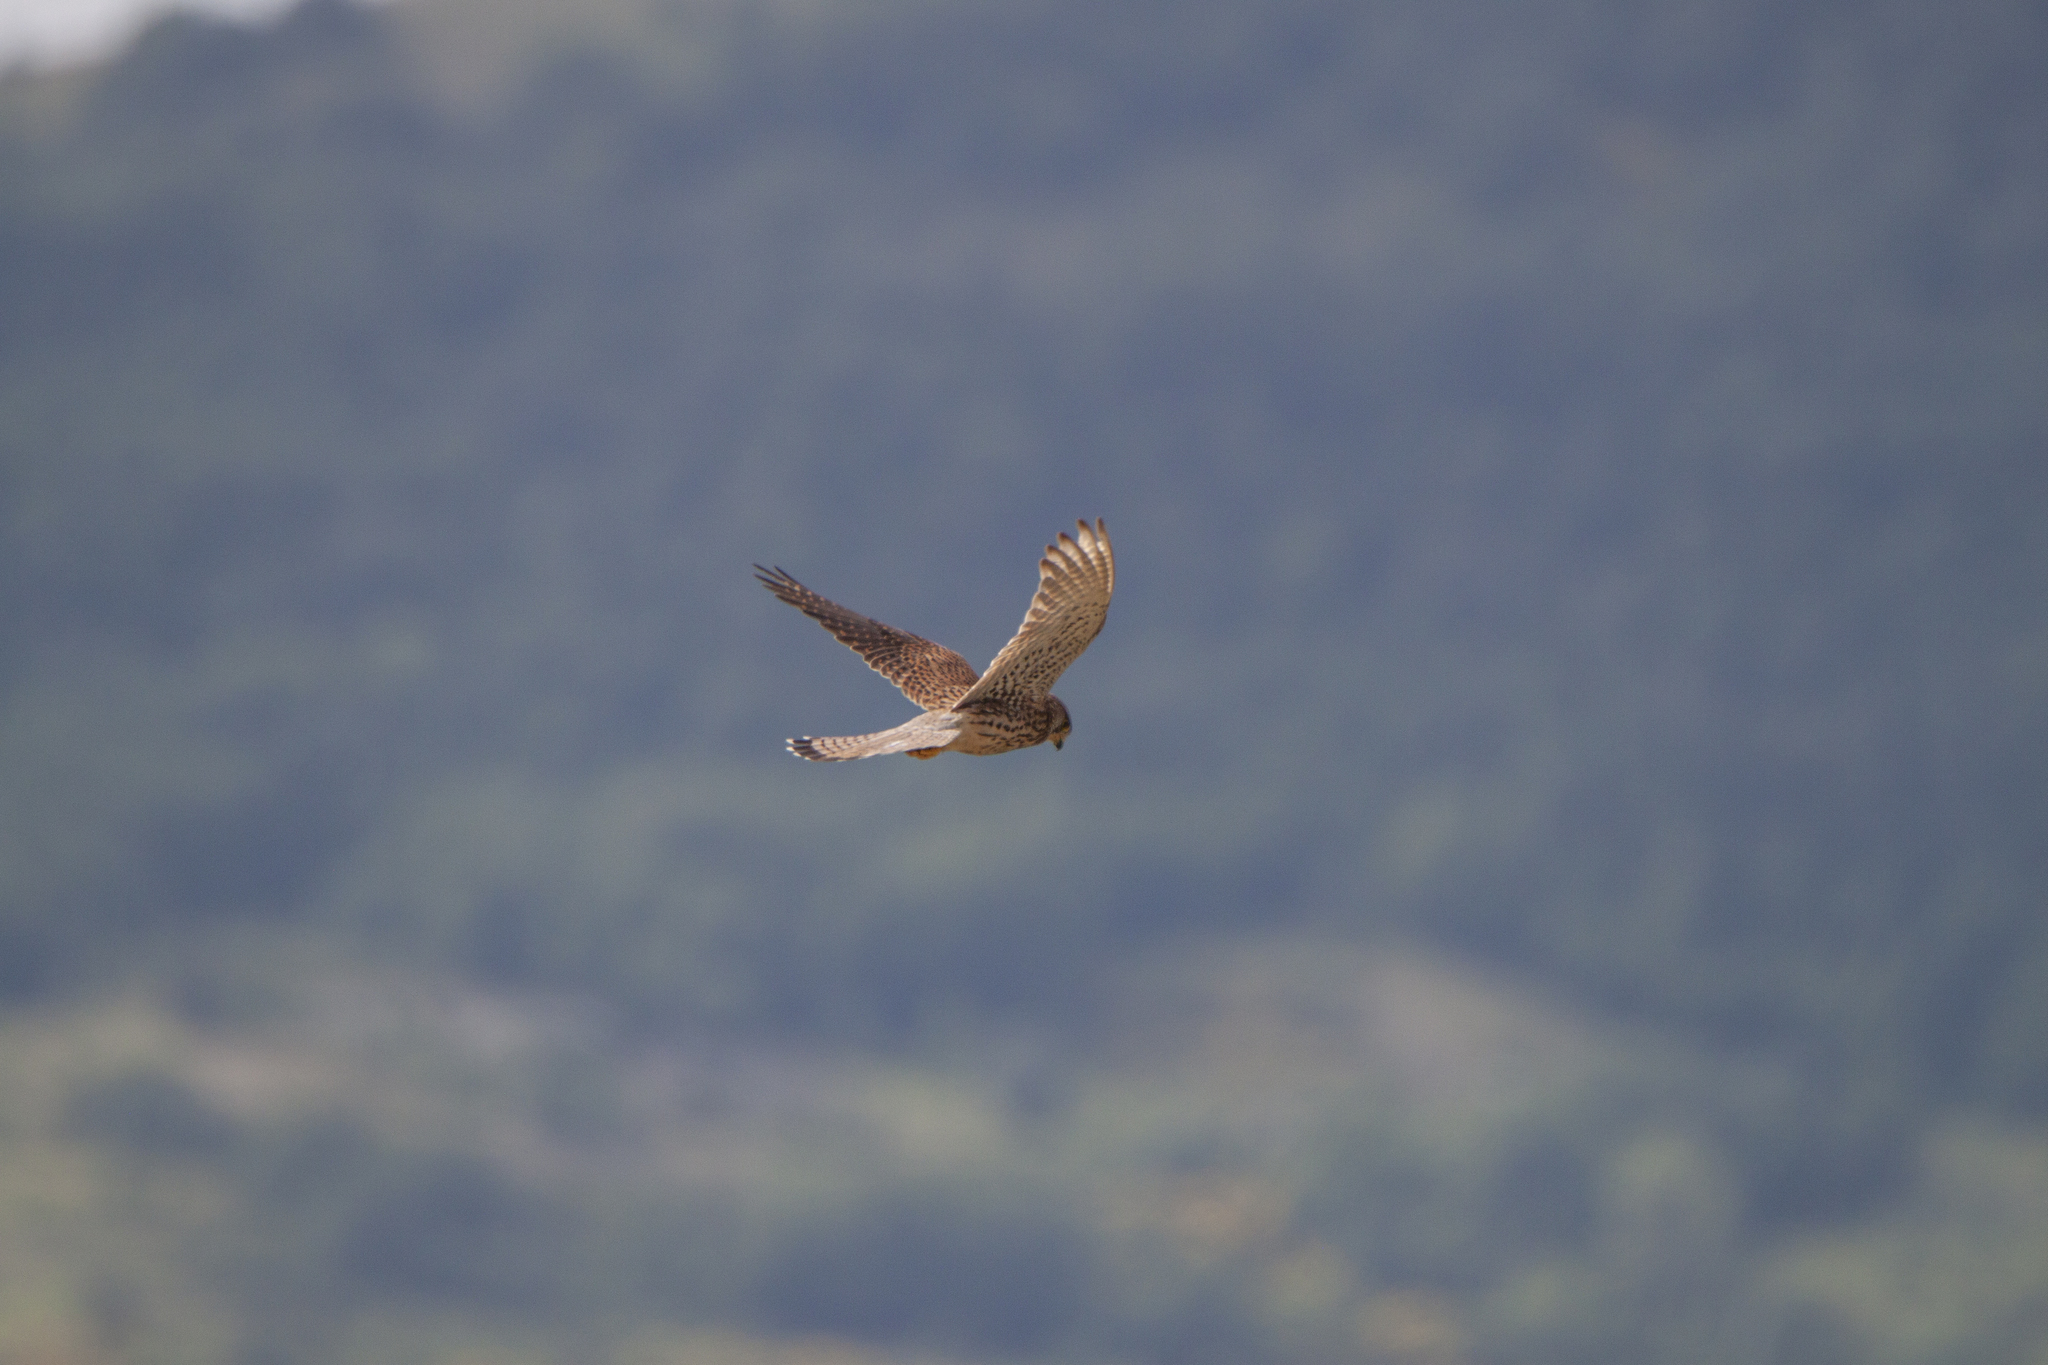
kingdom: Animalia
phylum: Chordata
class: Aves
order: Falconiformes
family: Falconidae
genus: Falco
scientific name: Falco tinnunculus
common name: Common kestrel
